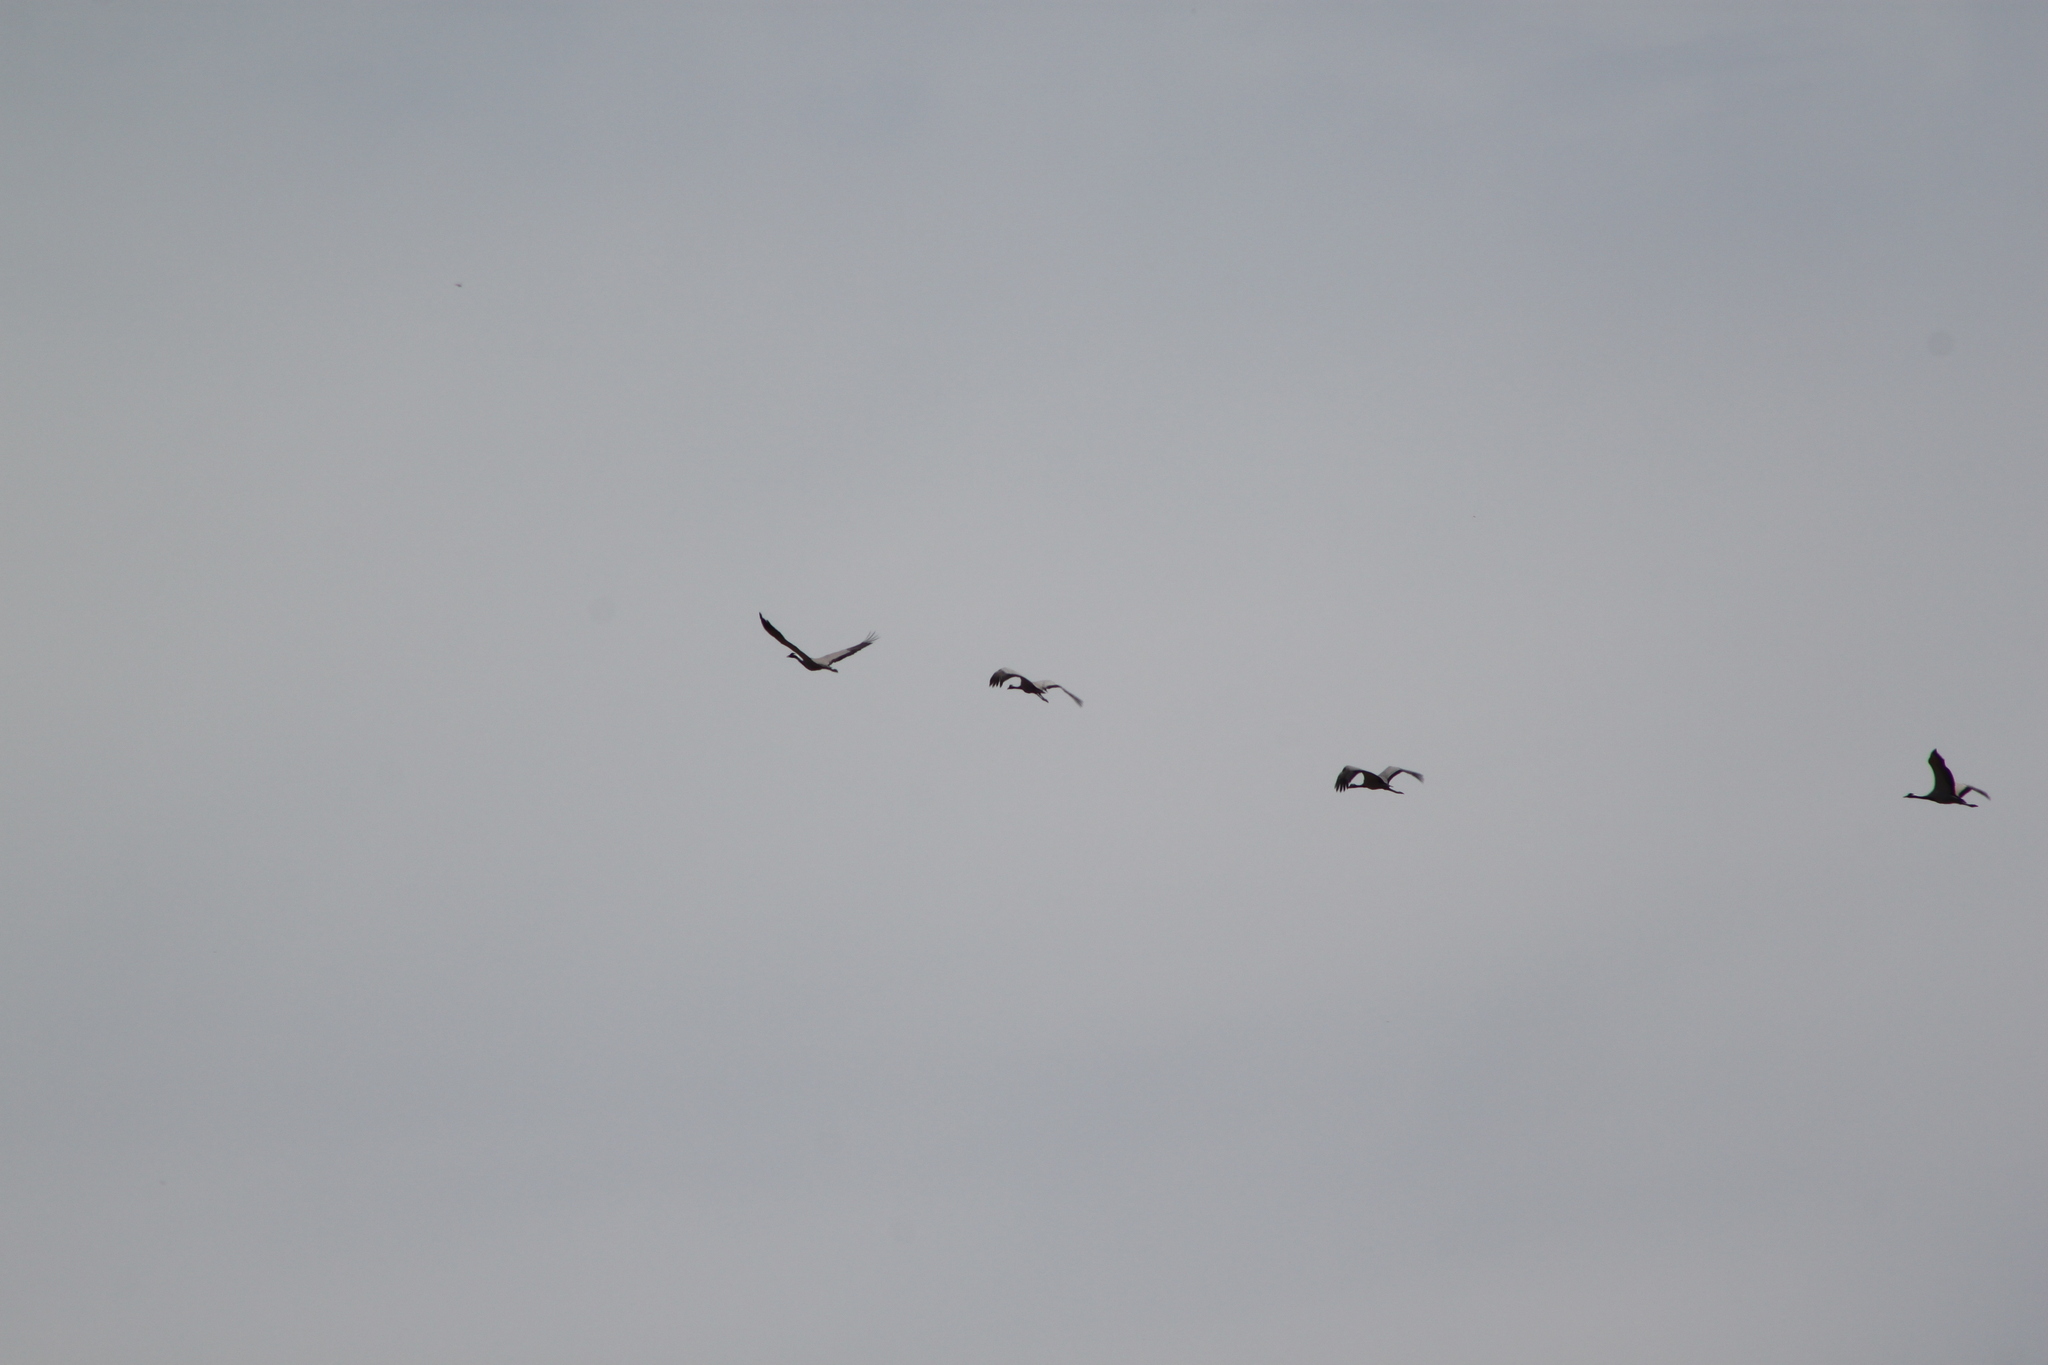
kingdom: Animalia
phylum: Chordata
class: Aves
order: Gruiformes
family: Gruidae
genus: Anthropoides
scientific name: Anthropoides virgo
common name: Demoiselle crane
